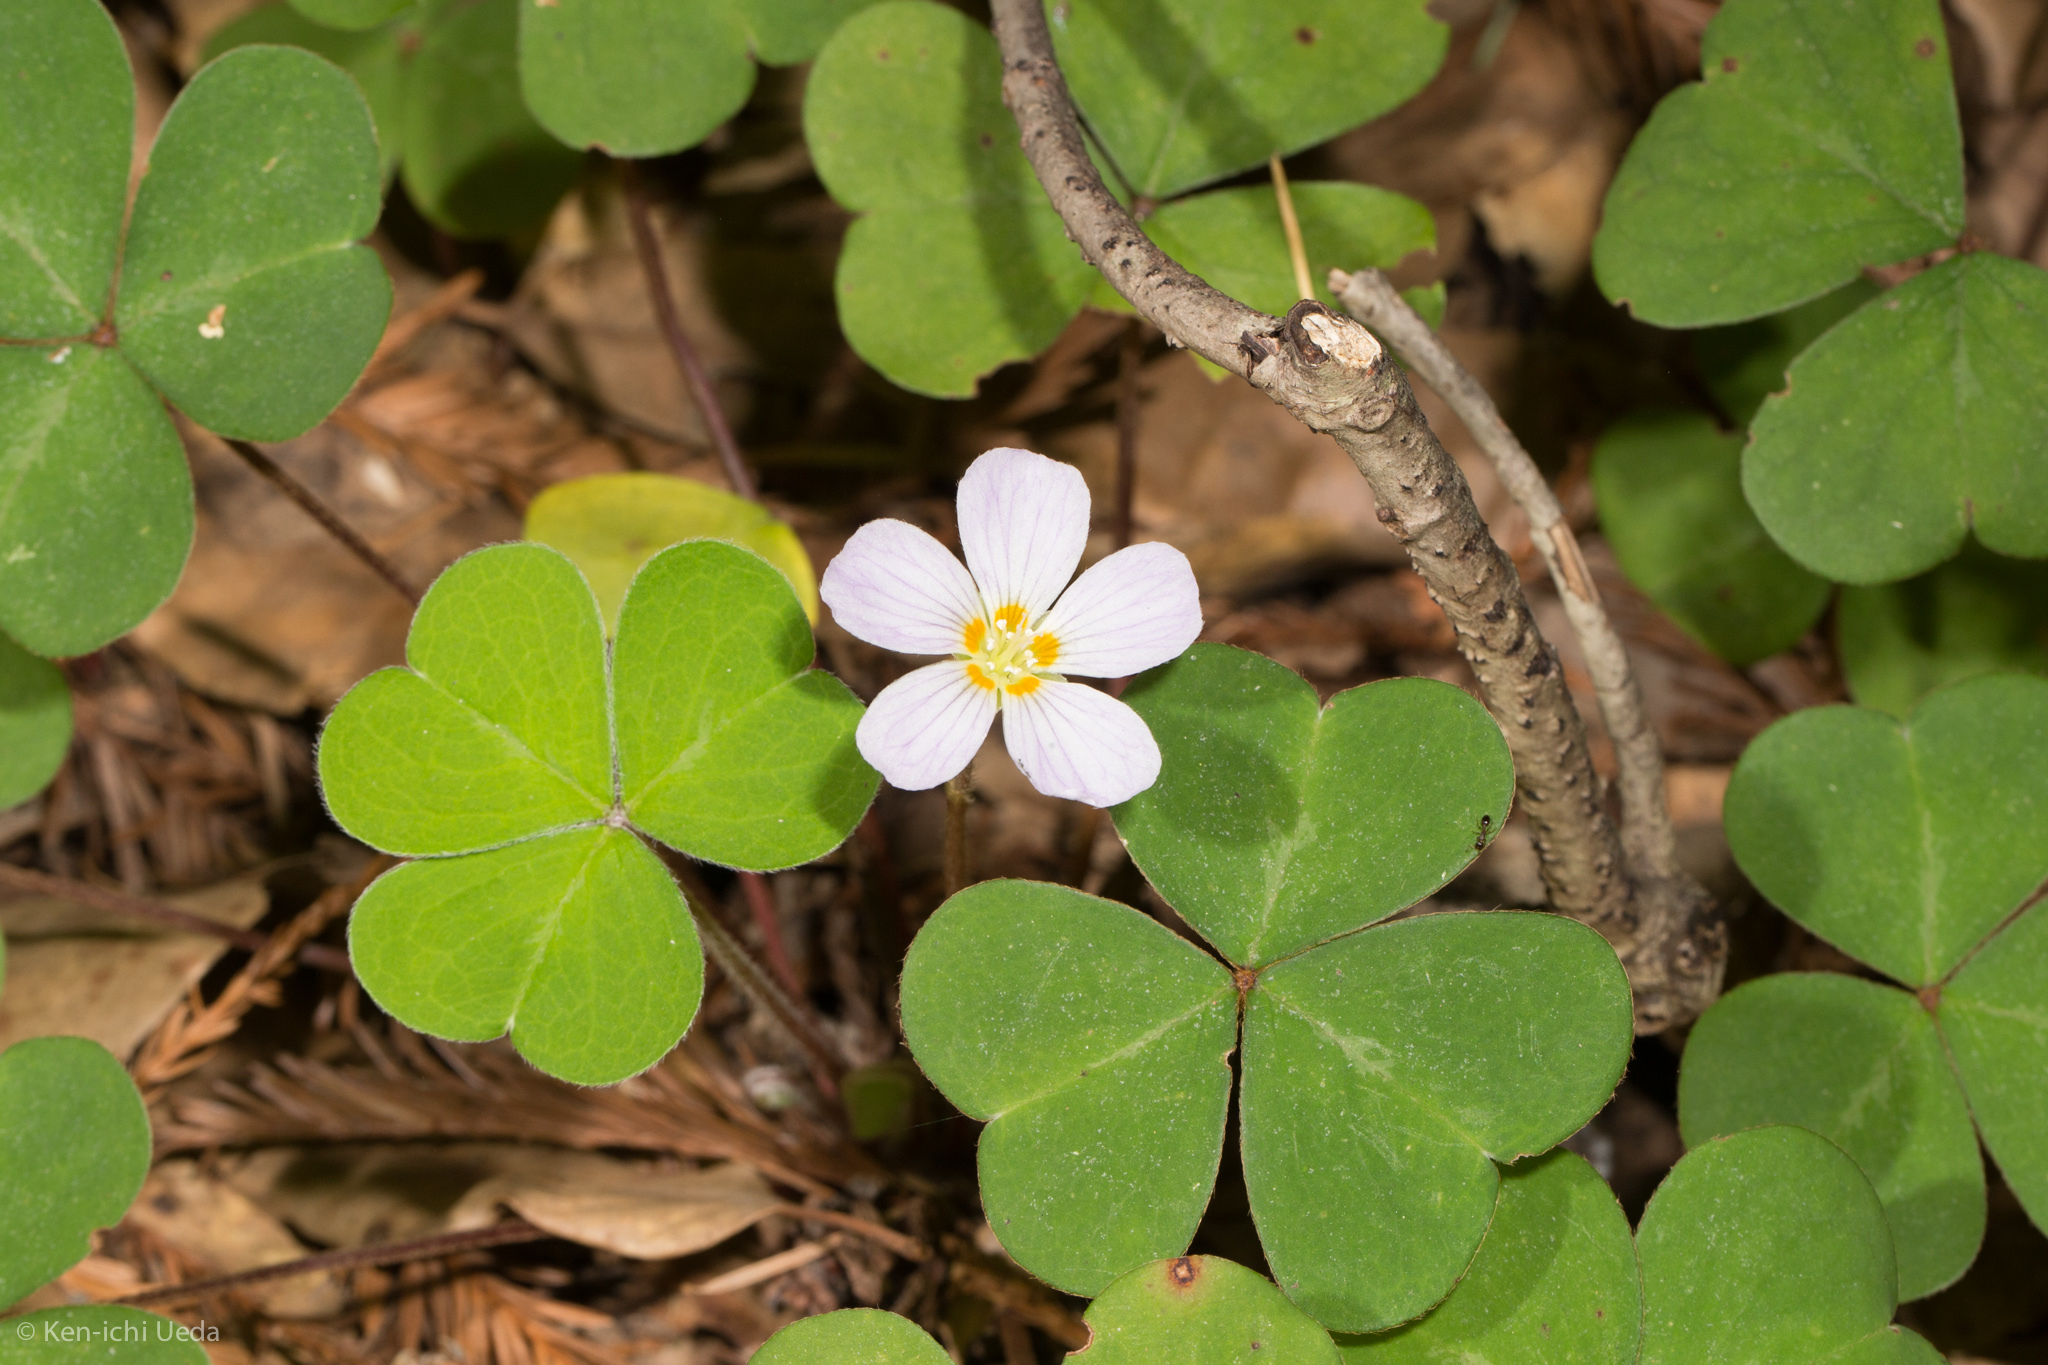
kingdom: Plantae
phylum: Tracheophyta
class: Magnoliopsida
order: Oxalidales
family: Oxalidaceae
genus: Oxalis
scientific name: Oxalis oregana
